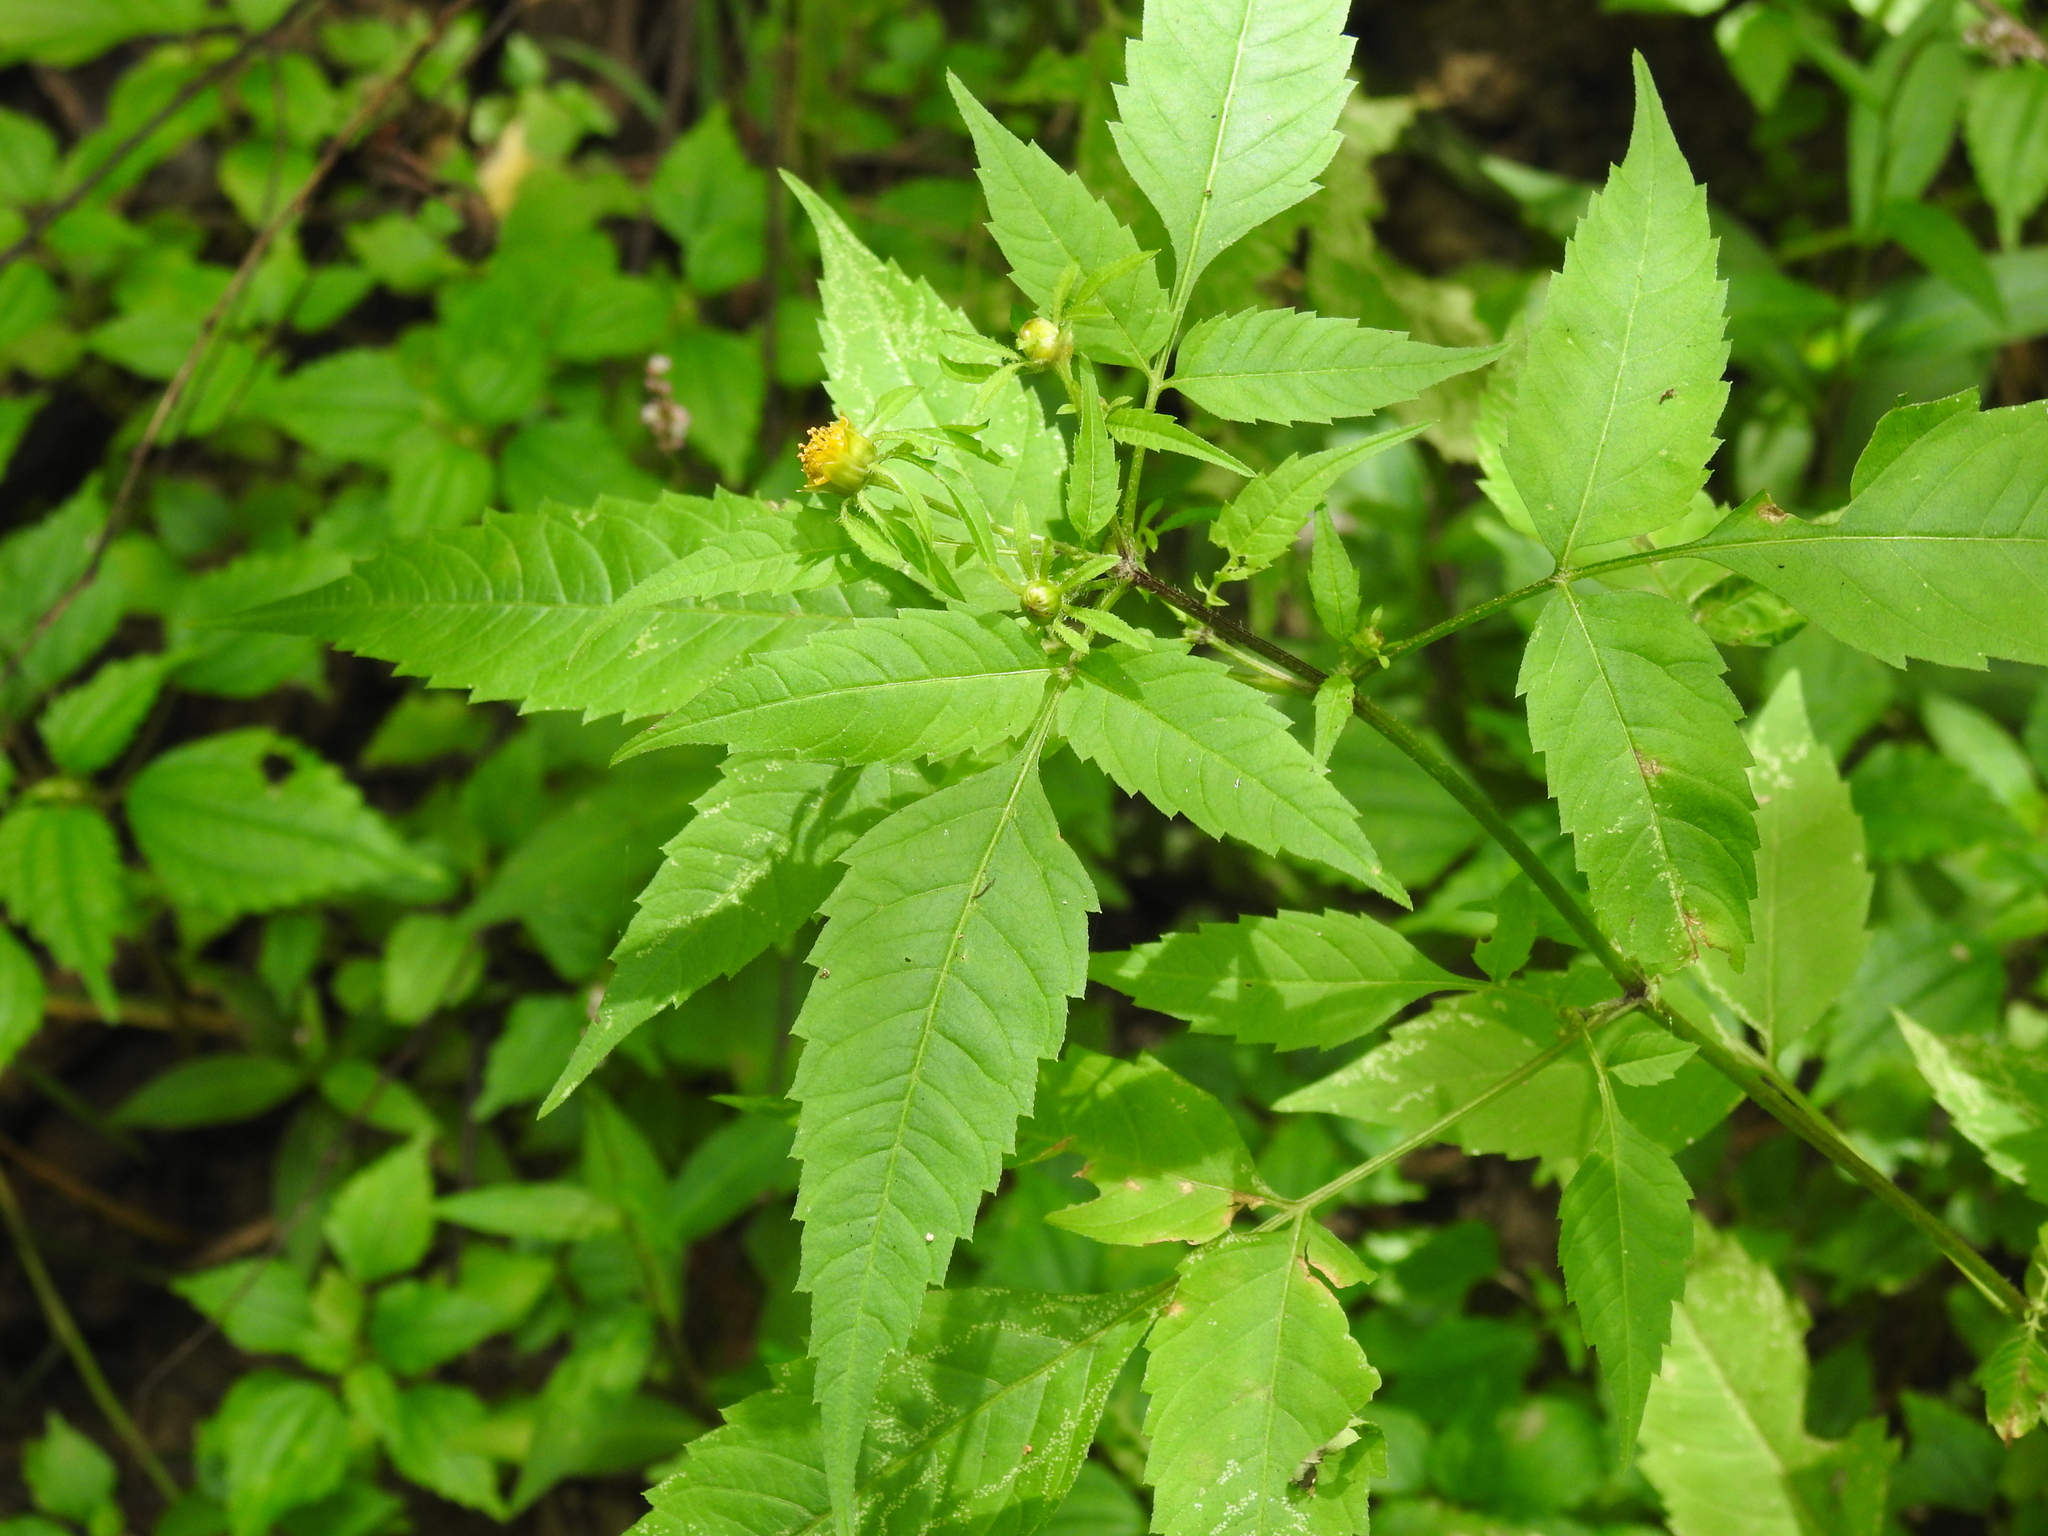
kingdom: Plantae
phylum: Tracheophyta
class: Magnoliopsida
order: Asterales
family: Asteraceae
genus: Bidens
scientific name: Bidens frondosa
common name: Beggarticks
